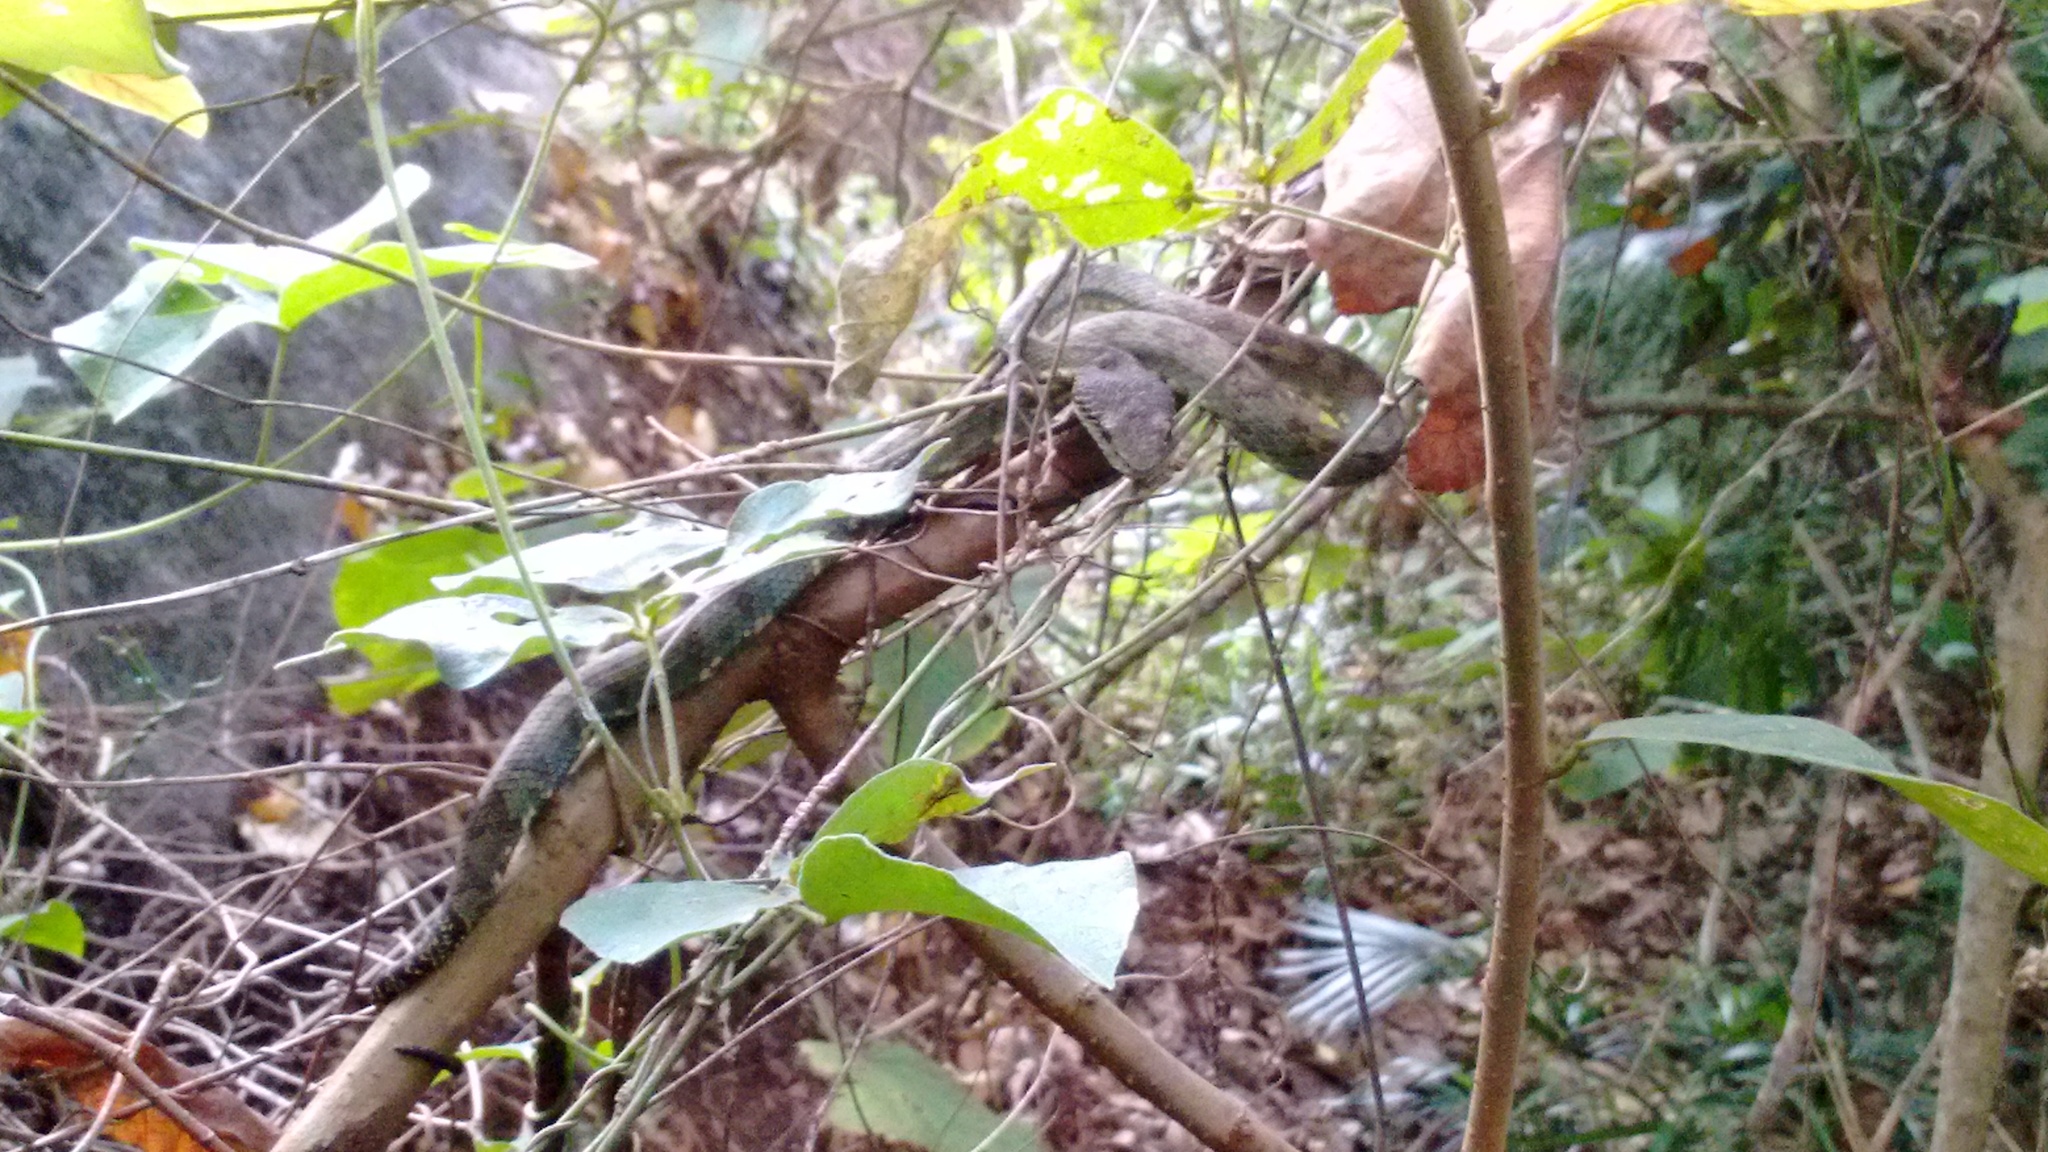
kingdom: Animalia
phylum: Chordata
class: Squamata
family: Viperidae
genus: Craspedocephalus
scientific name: Craspedocephalus travancoricus
